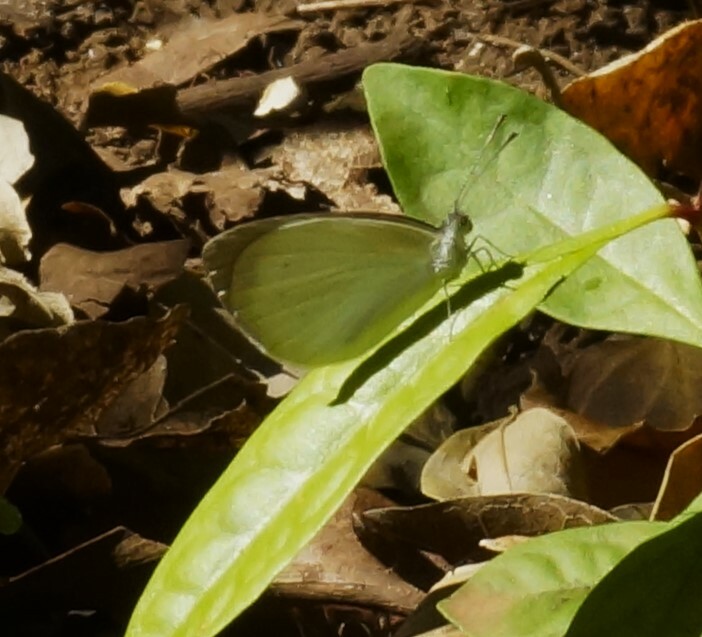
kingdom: Animalia
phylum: Arthropoda
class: Insecta
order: Lepidoptera
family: Pieridae
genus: Elodina
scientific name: Elodina walkeri
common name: Small pearl-white
